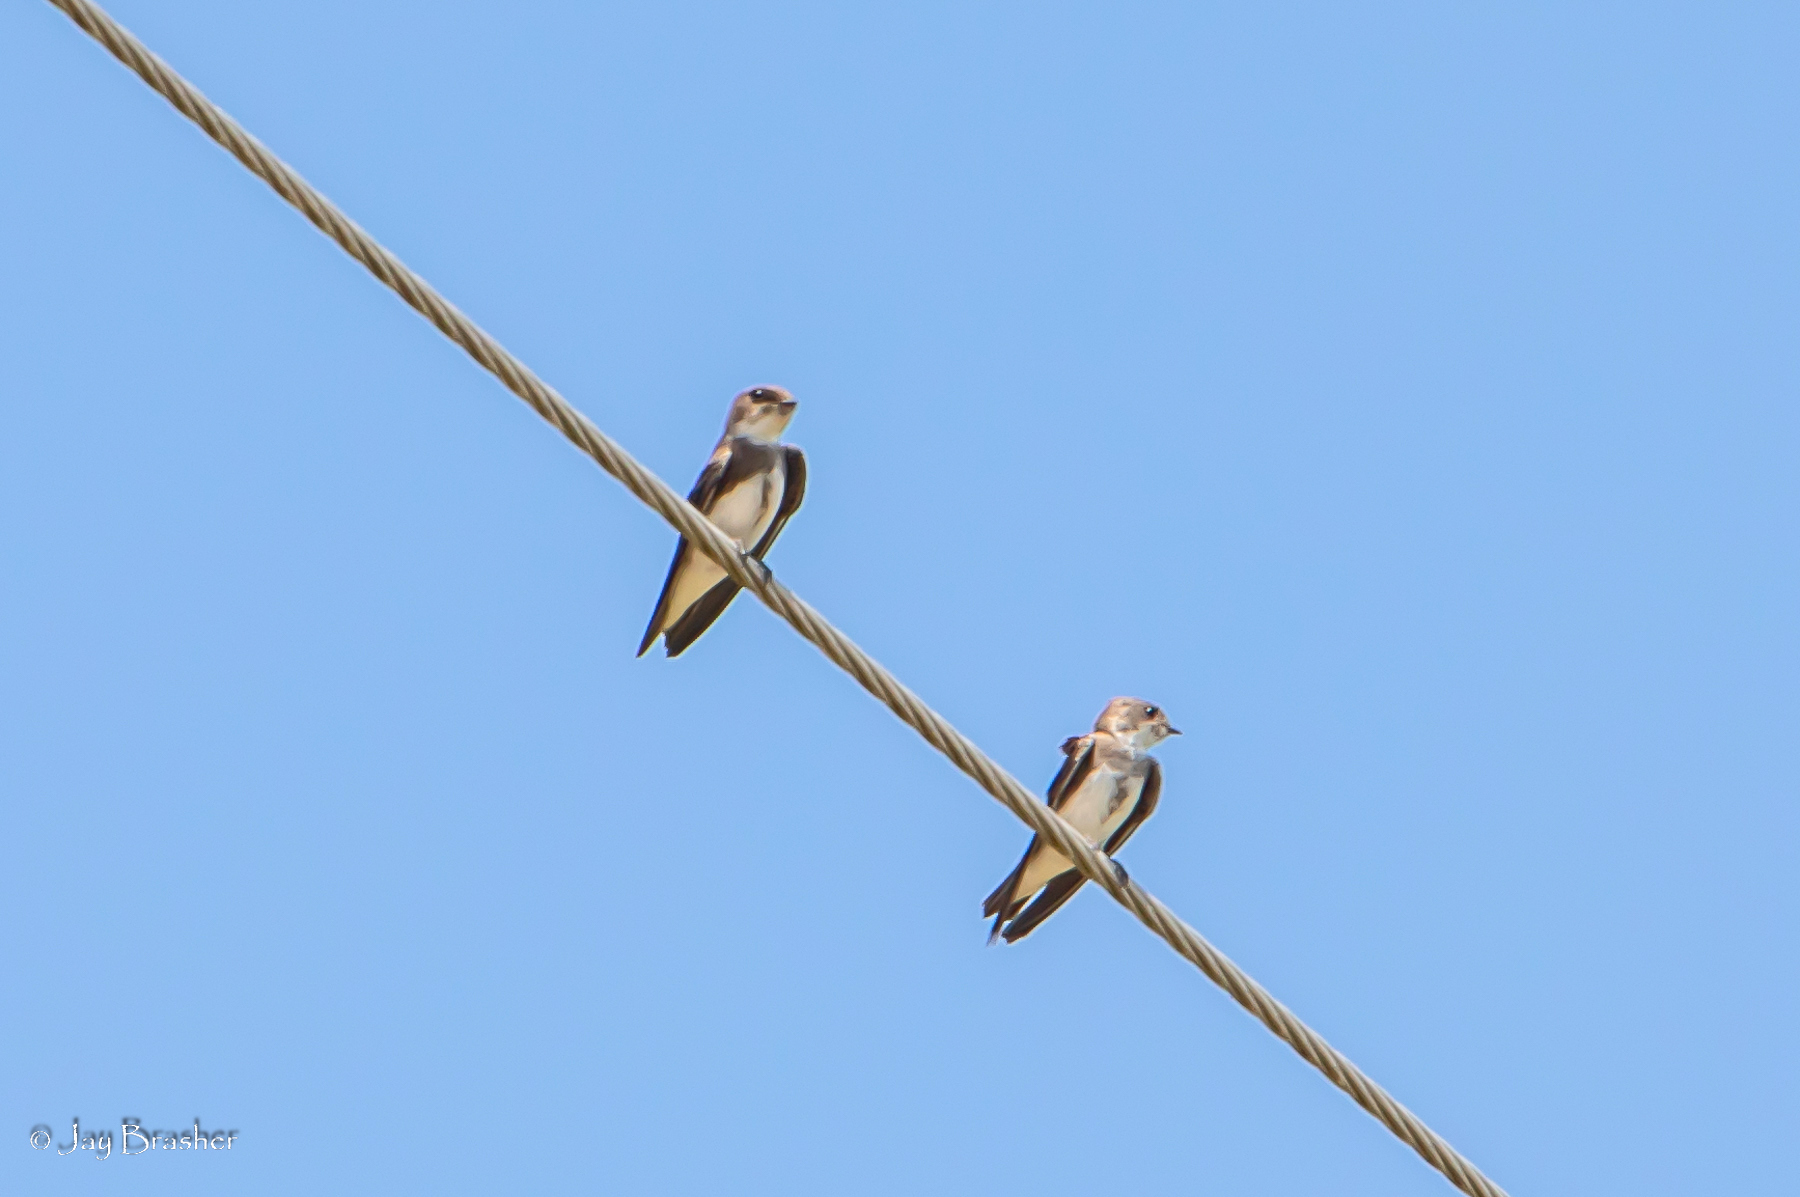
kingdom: Animalia
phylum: Chordata
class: Aves
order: Passeriformes
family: Hirundinidae
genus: Riparia
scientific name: Riparia riparia
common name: Sand martin
